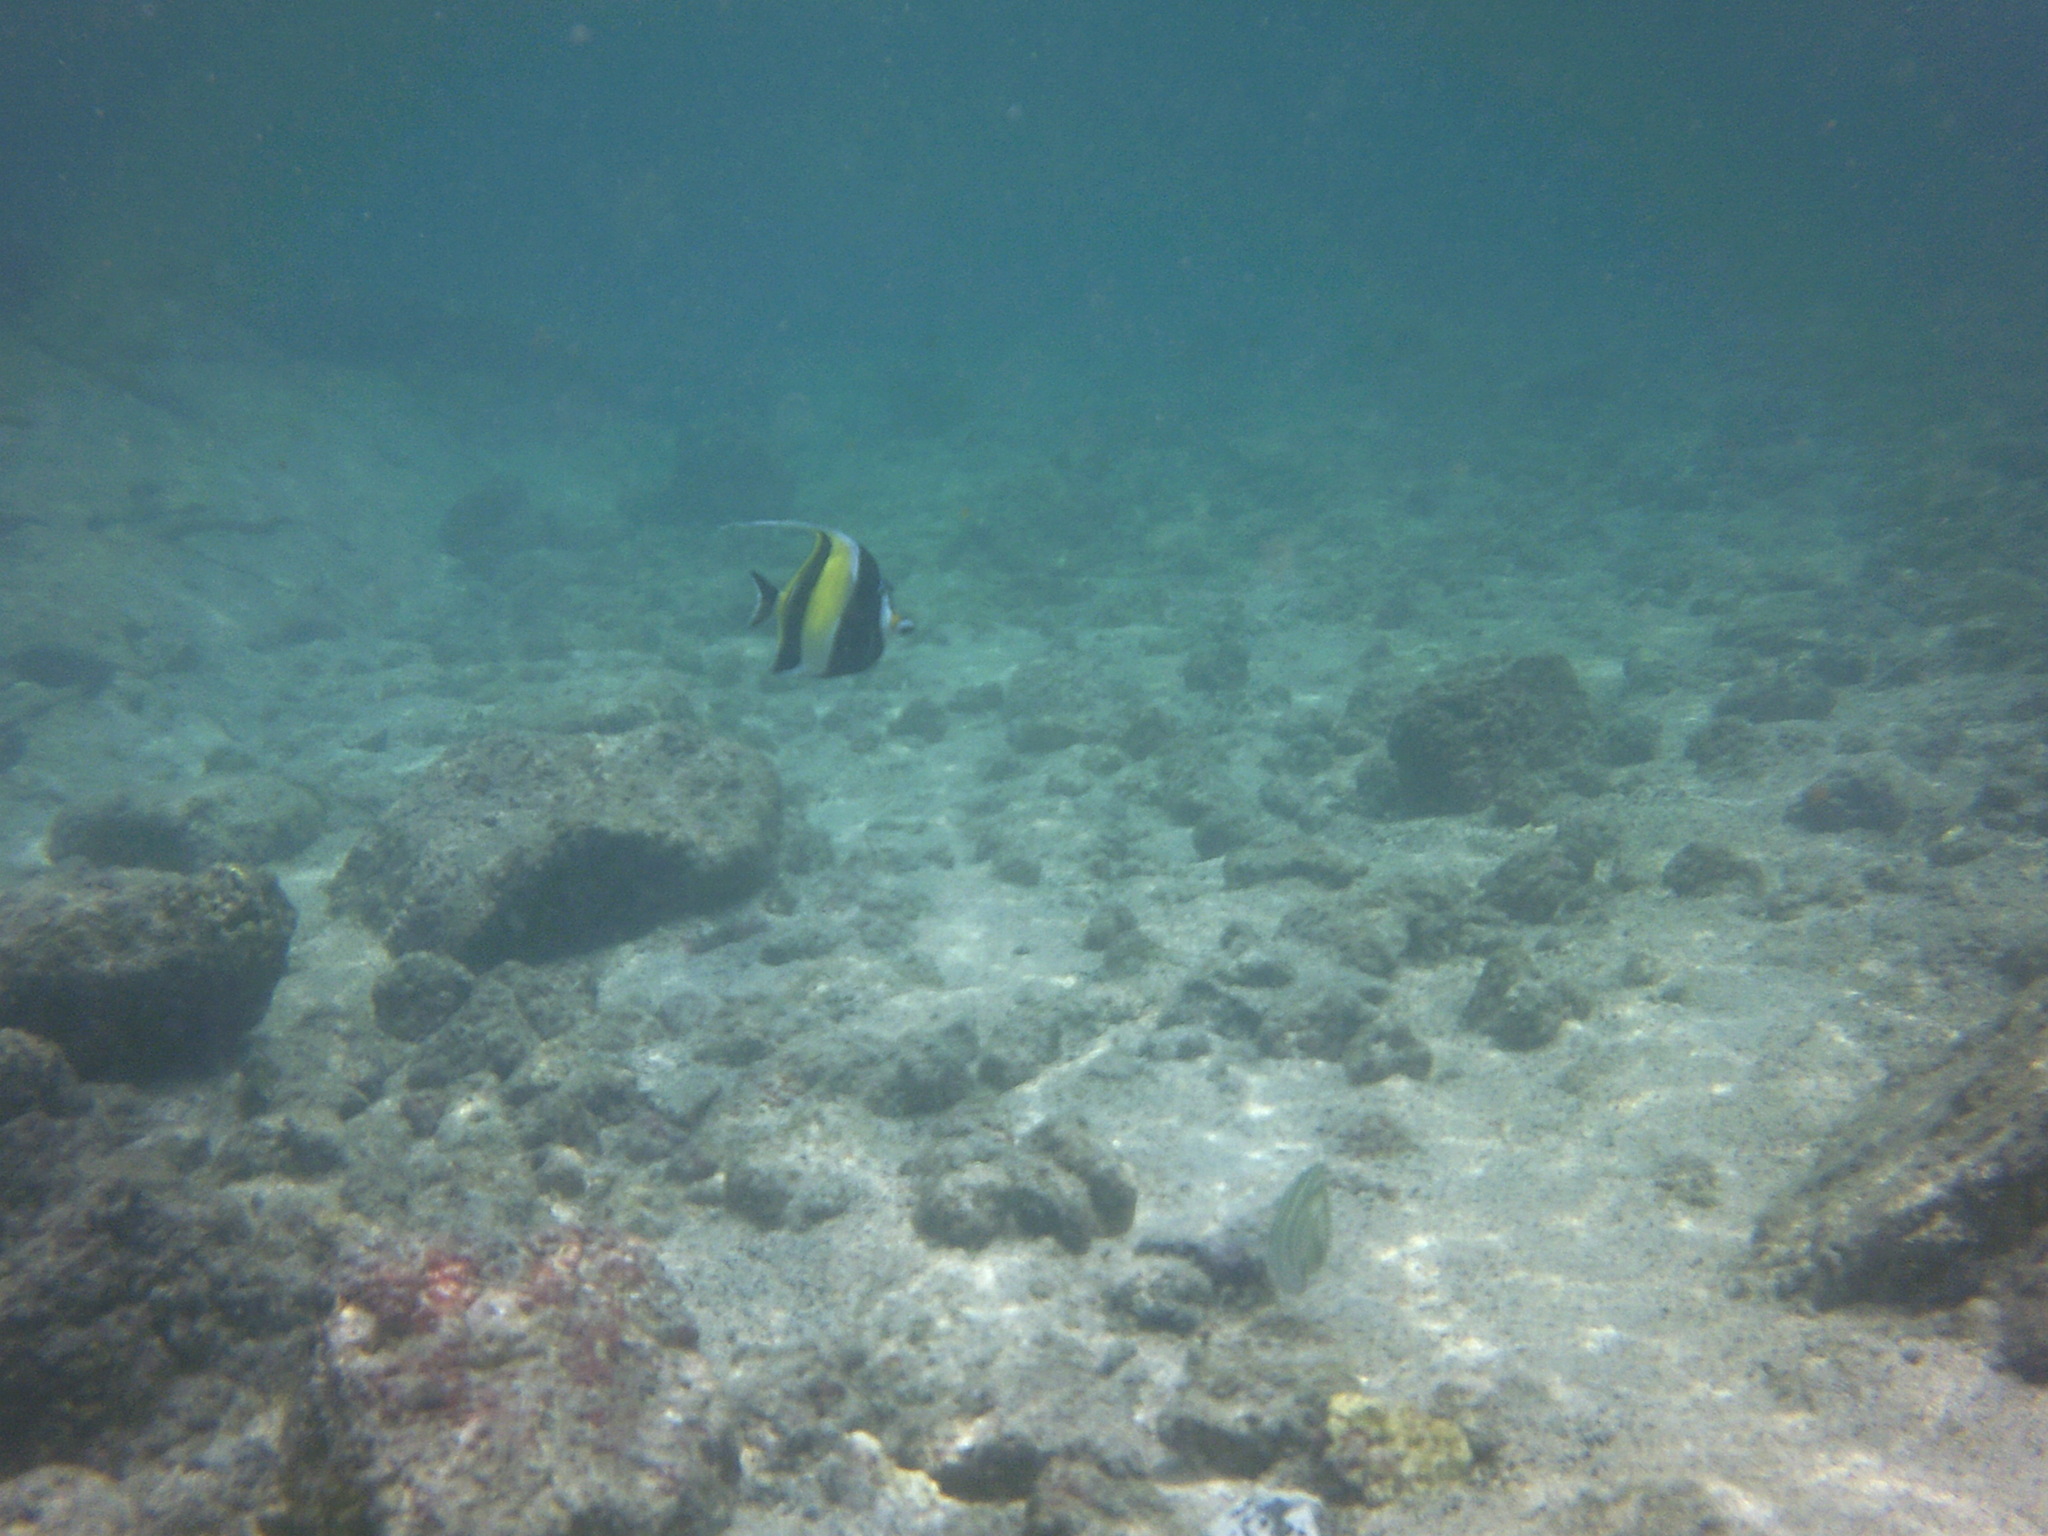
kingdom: Animalia
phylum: Chordata
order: Perciformes
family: Zanclidae
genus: Zanclus
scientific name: Zanclus cornutus
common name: Moorish idol
